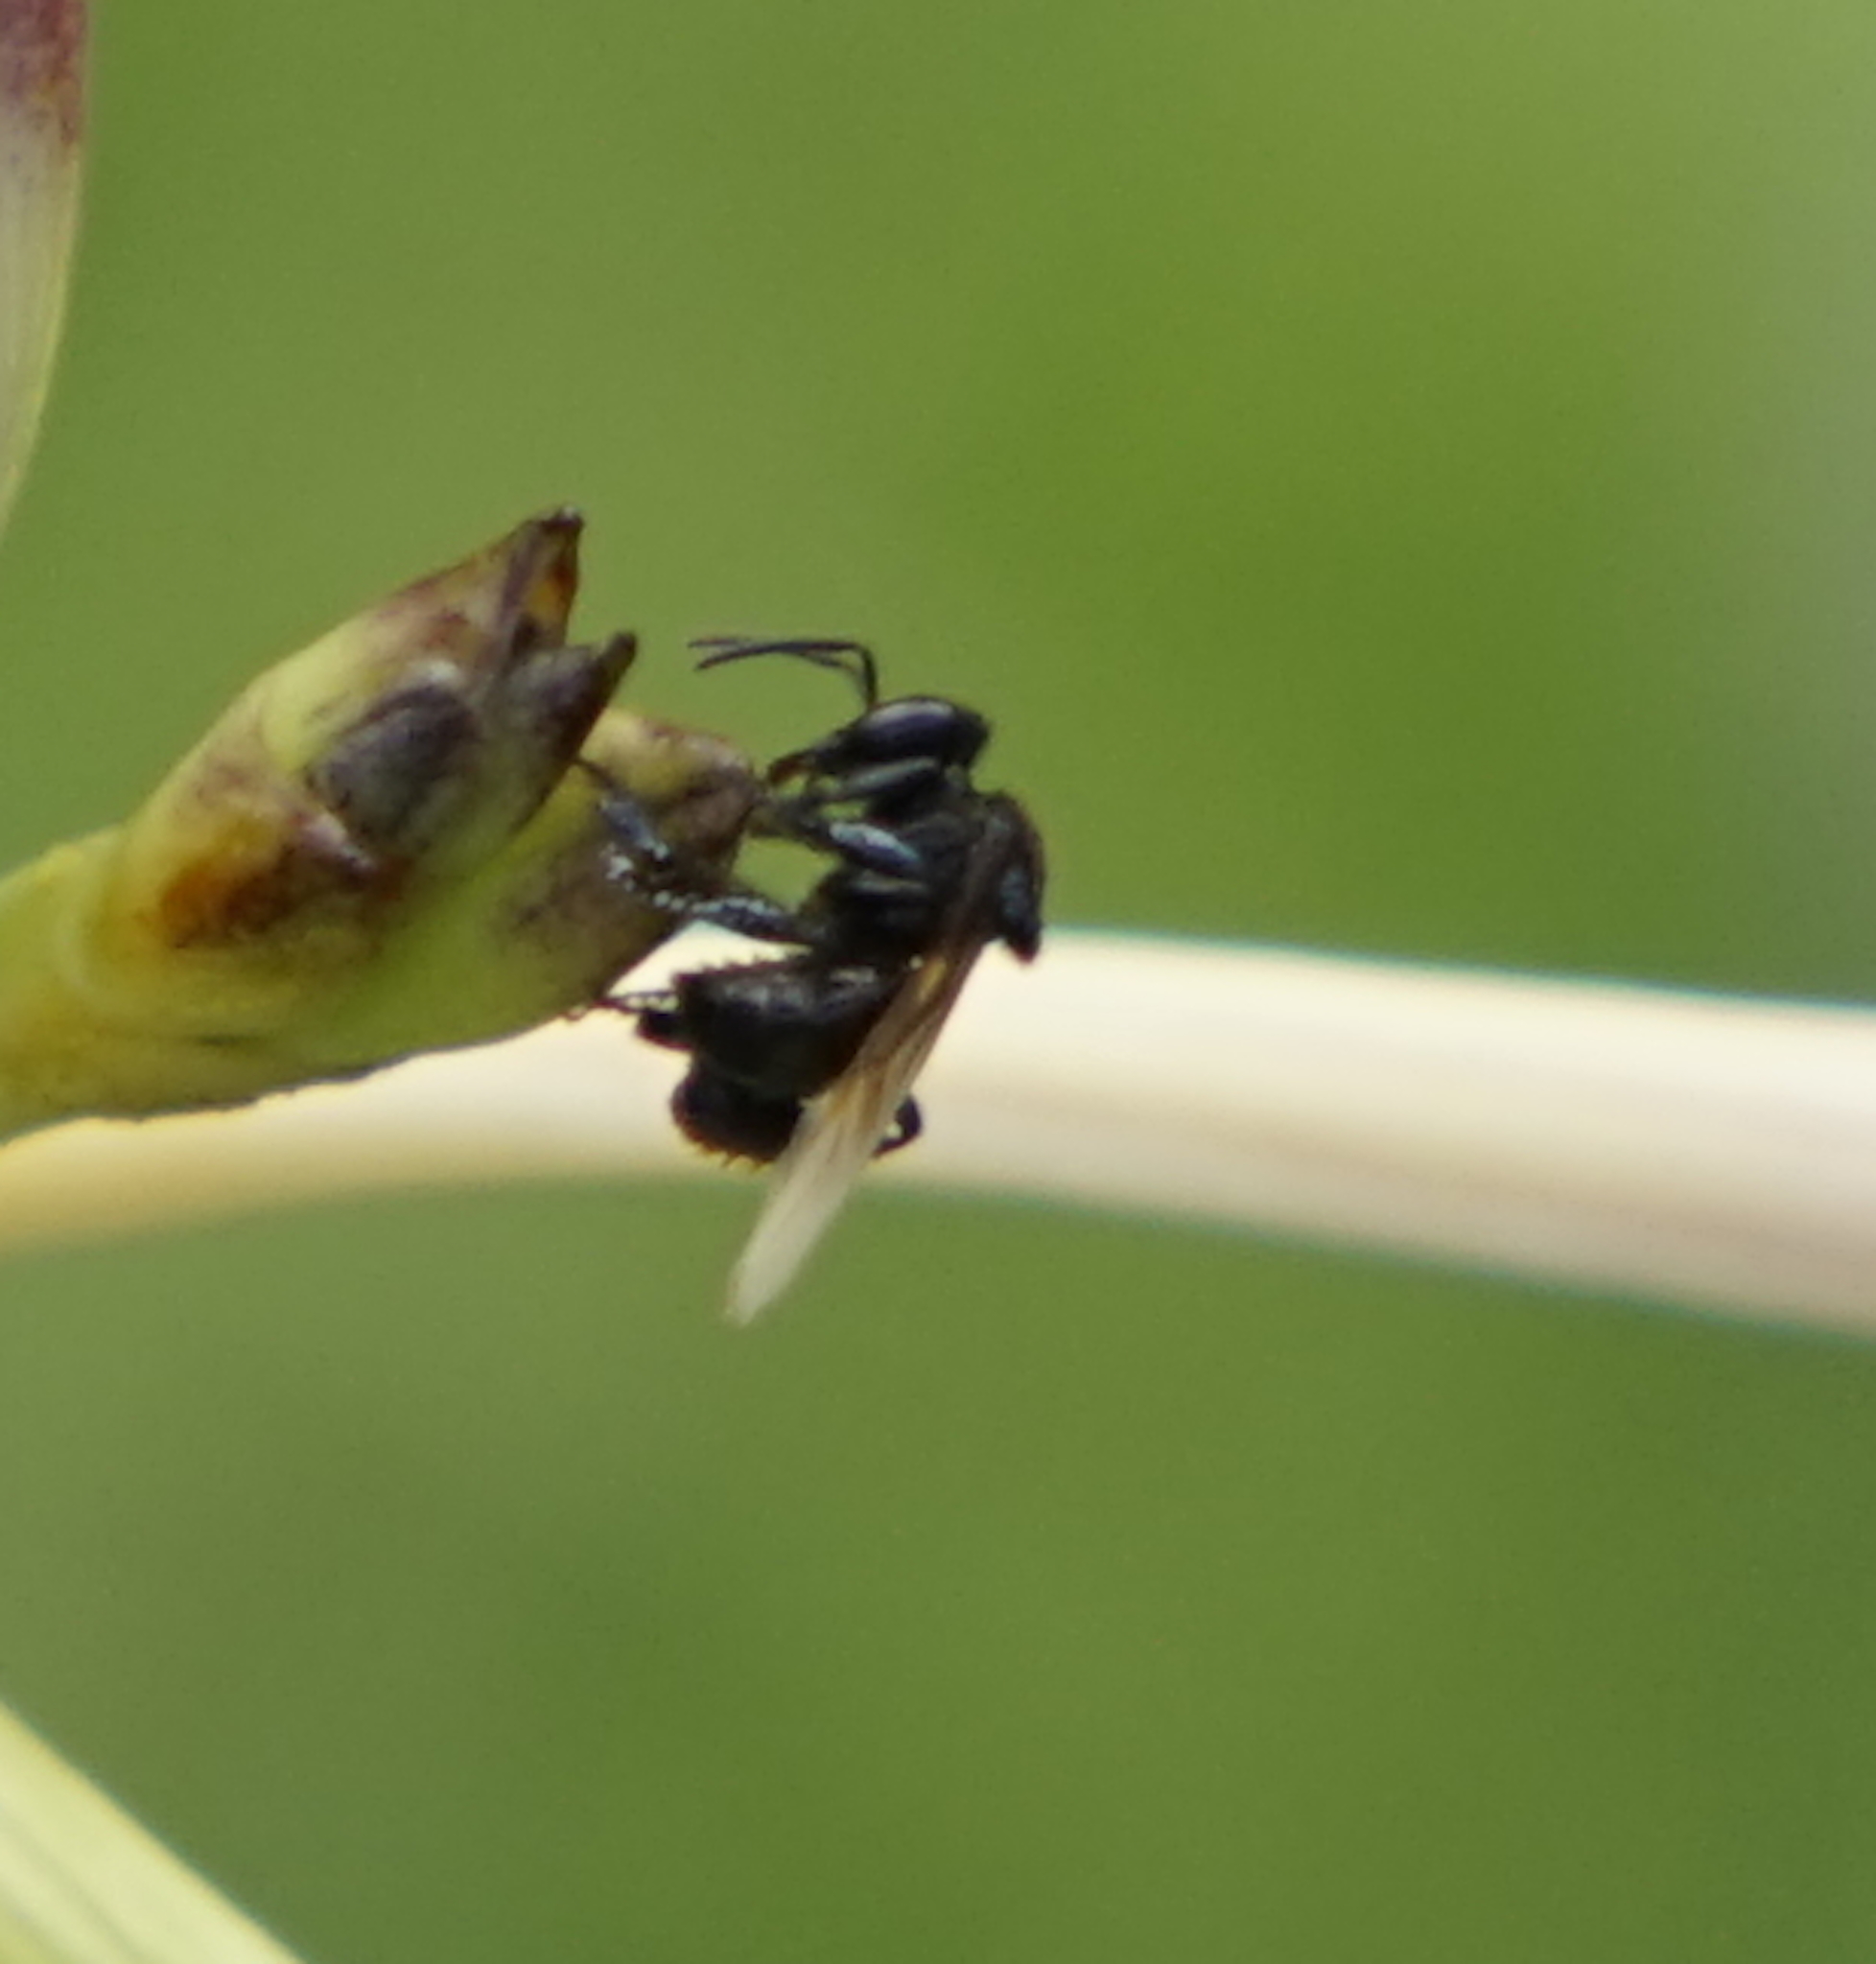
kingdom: Animalia
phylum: Arthropoda
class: Insecta
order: Hymenoptera
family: Apidae
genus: Tetragonula
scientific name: Tetragonula collina
